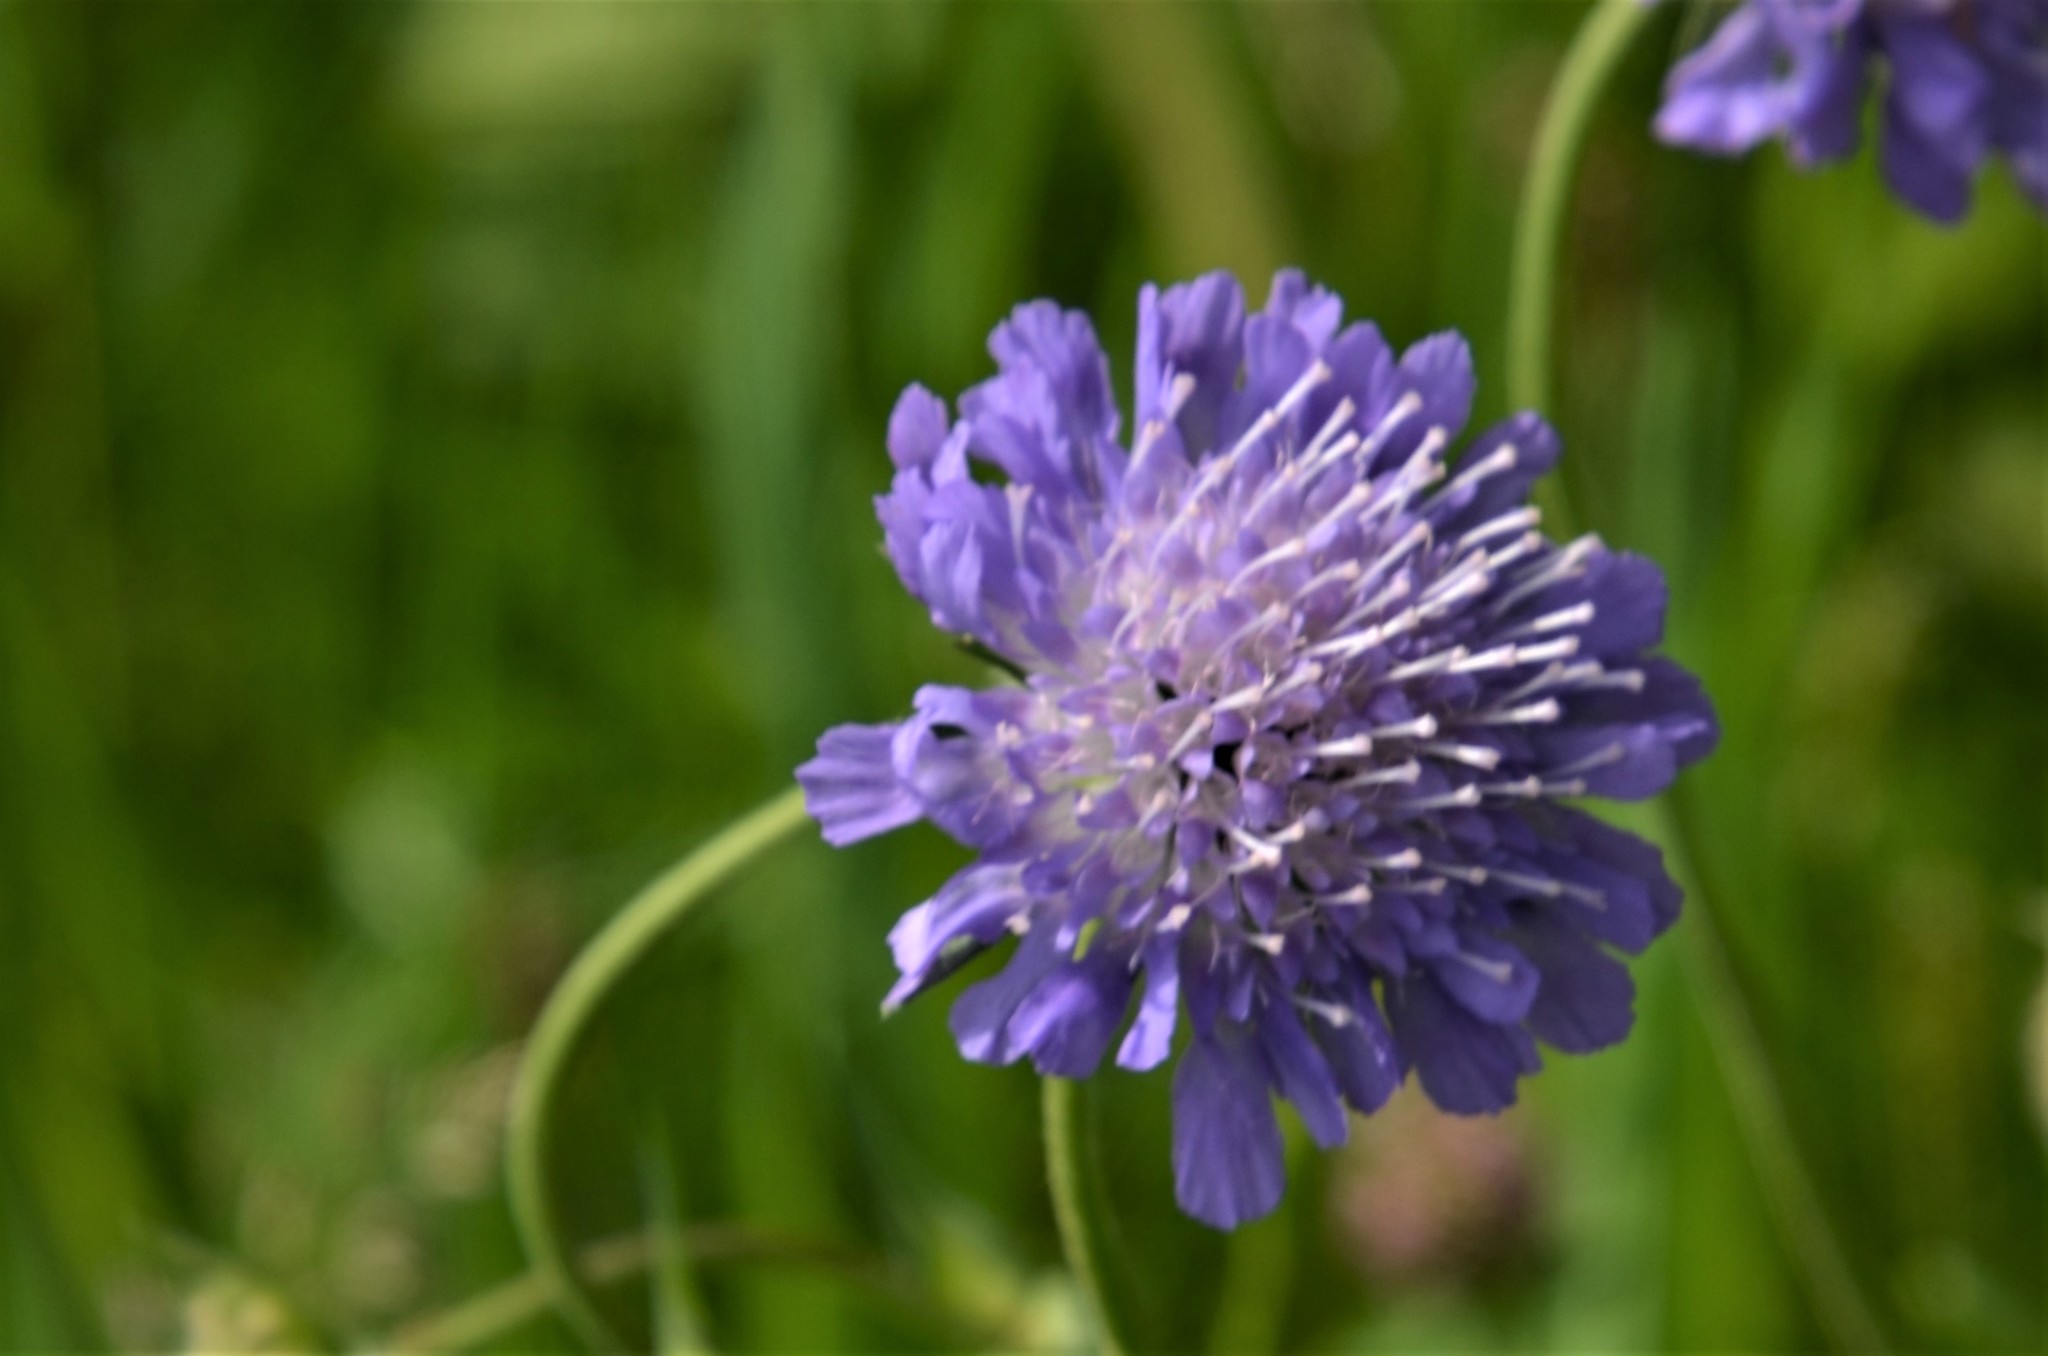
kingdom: Plantae
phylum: Tracheophyta
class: Magnoliopsida
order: Dipsacales
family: Caprifoliaceae
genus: Knautia
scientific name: Knautia arvensis
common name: Field scabiosa
